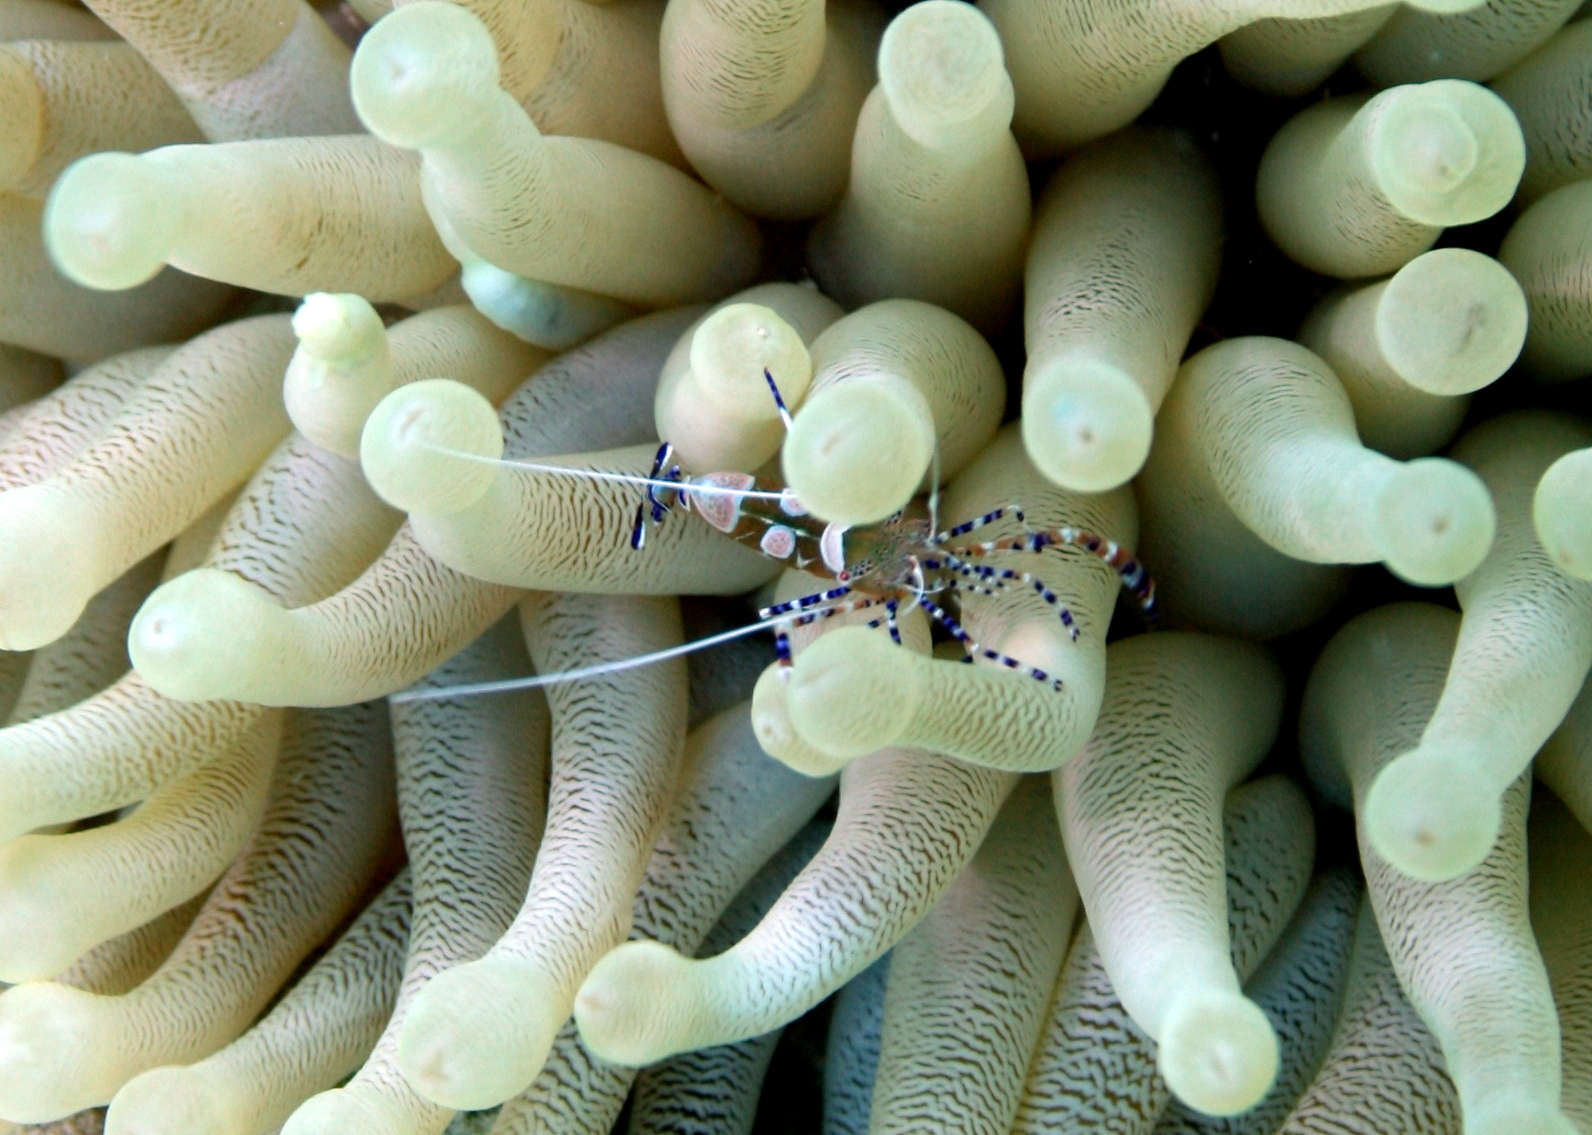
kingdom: Animalia
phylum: Arthropoda
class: Malacostraca
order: Decapoda
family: Palaemonidae
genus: Periclimenes
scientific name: Periclimenes yucatanicus
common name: Spotted cleaning shrimp
